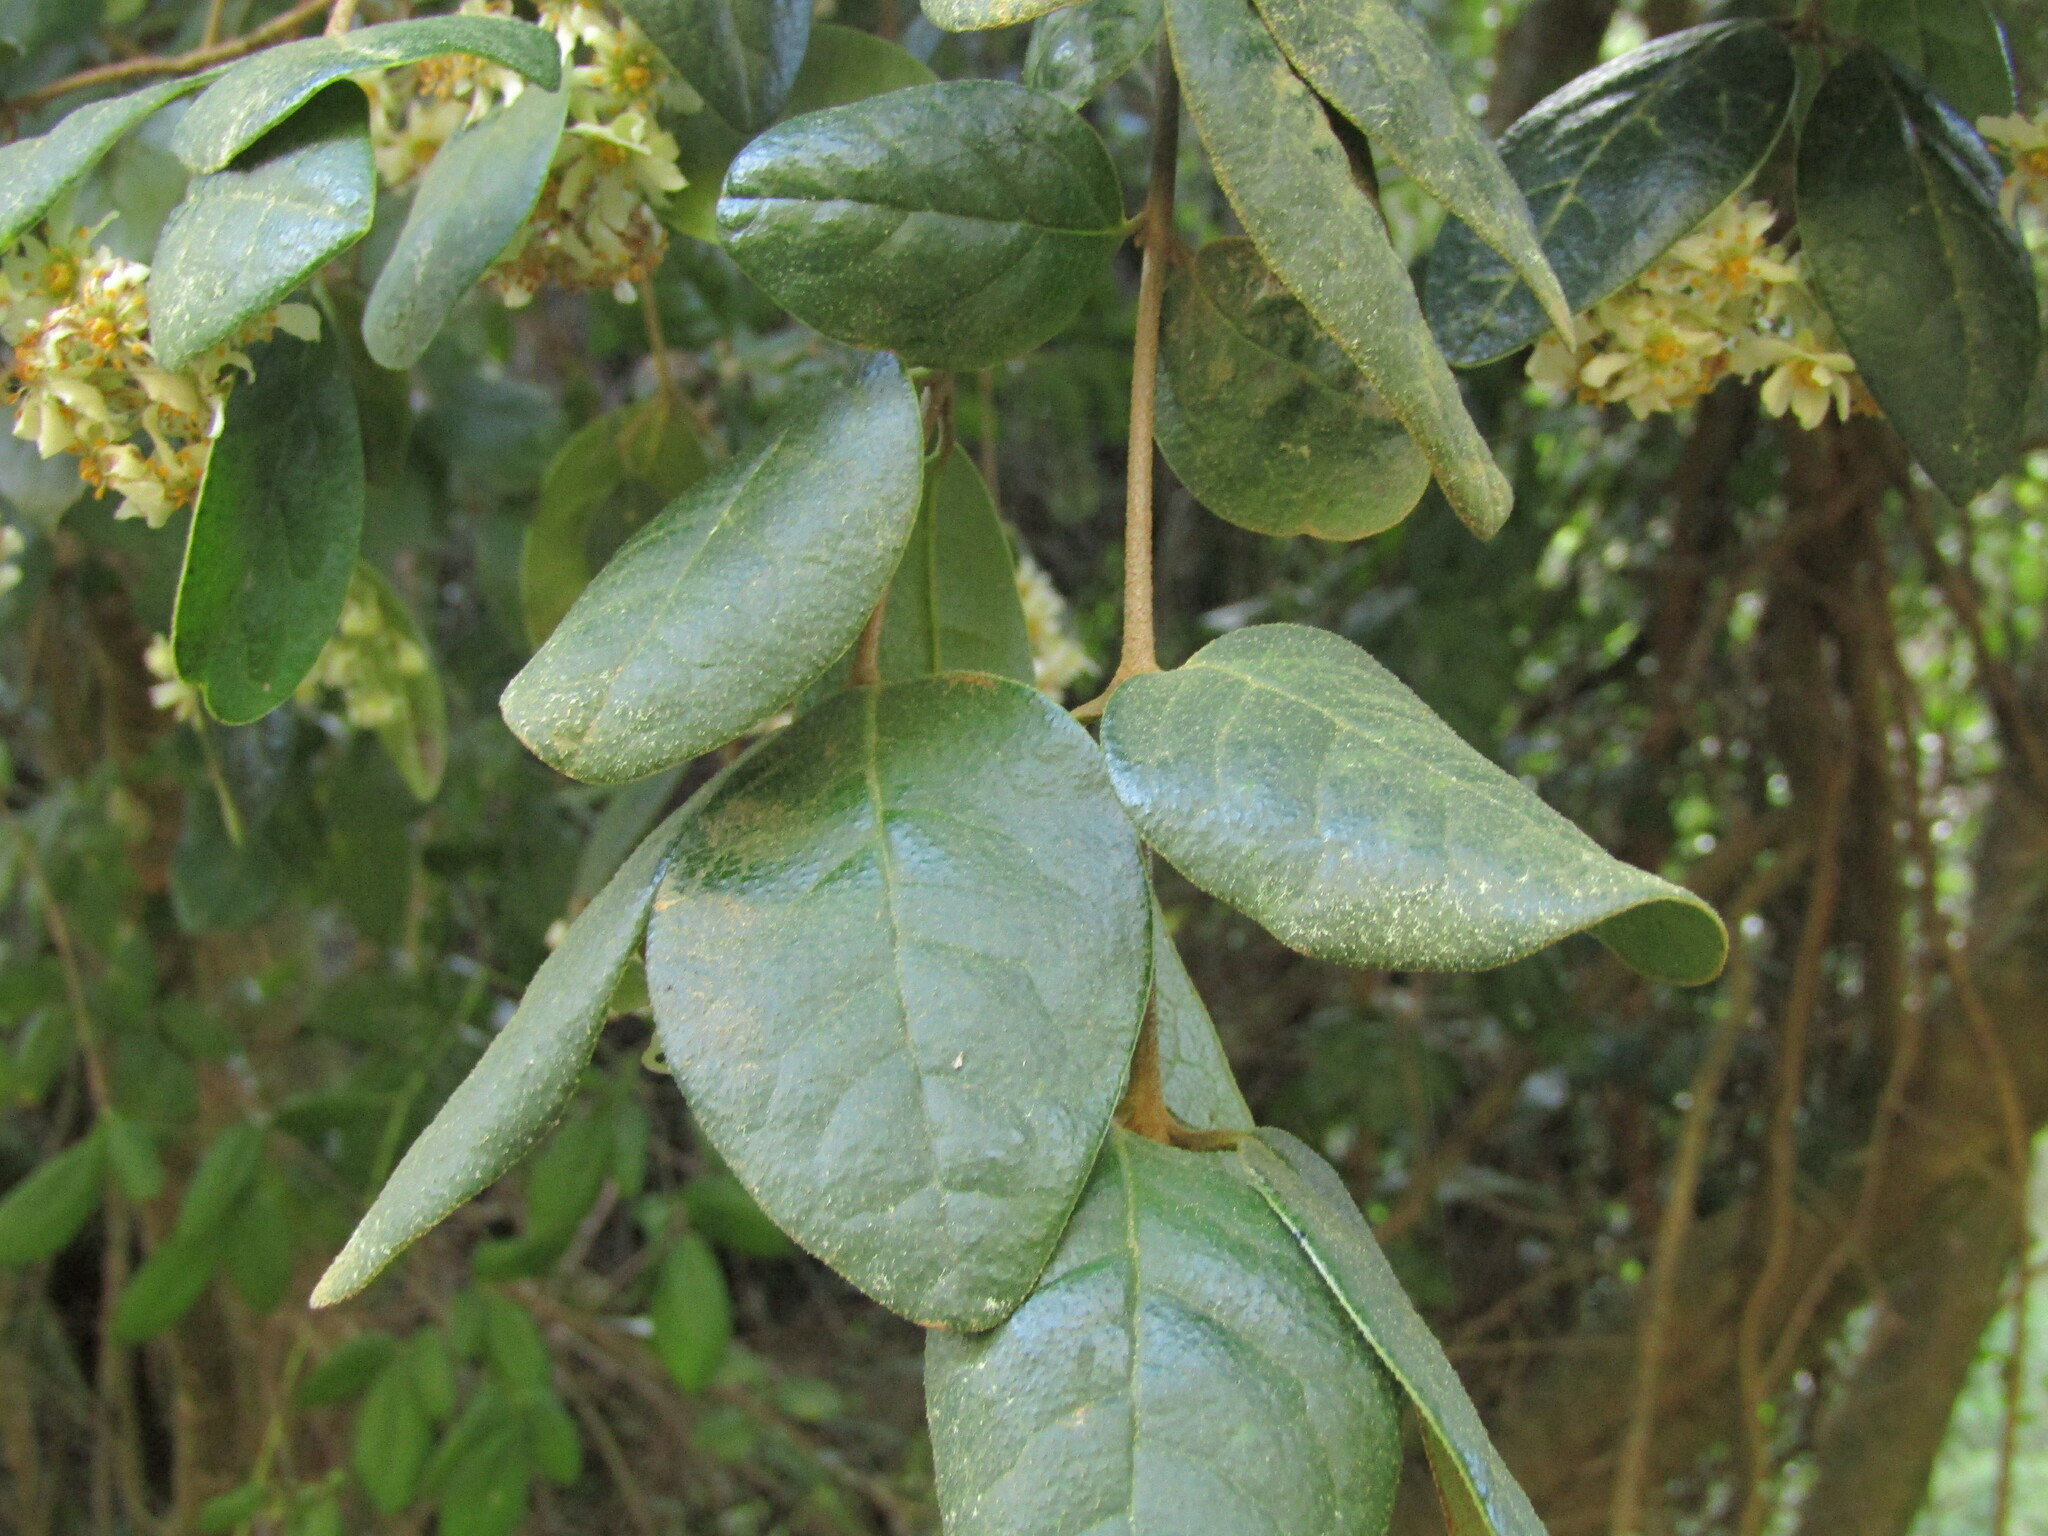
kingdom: Plantae
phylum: Tracheophyta
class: Magnoliopsida
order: Laurales
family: Monimiaceae
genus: Peumus
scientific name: Peumus boldus
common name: Boldo
